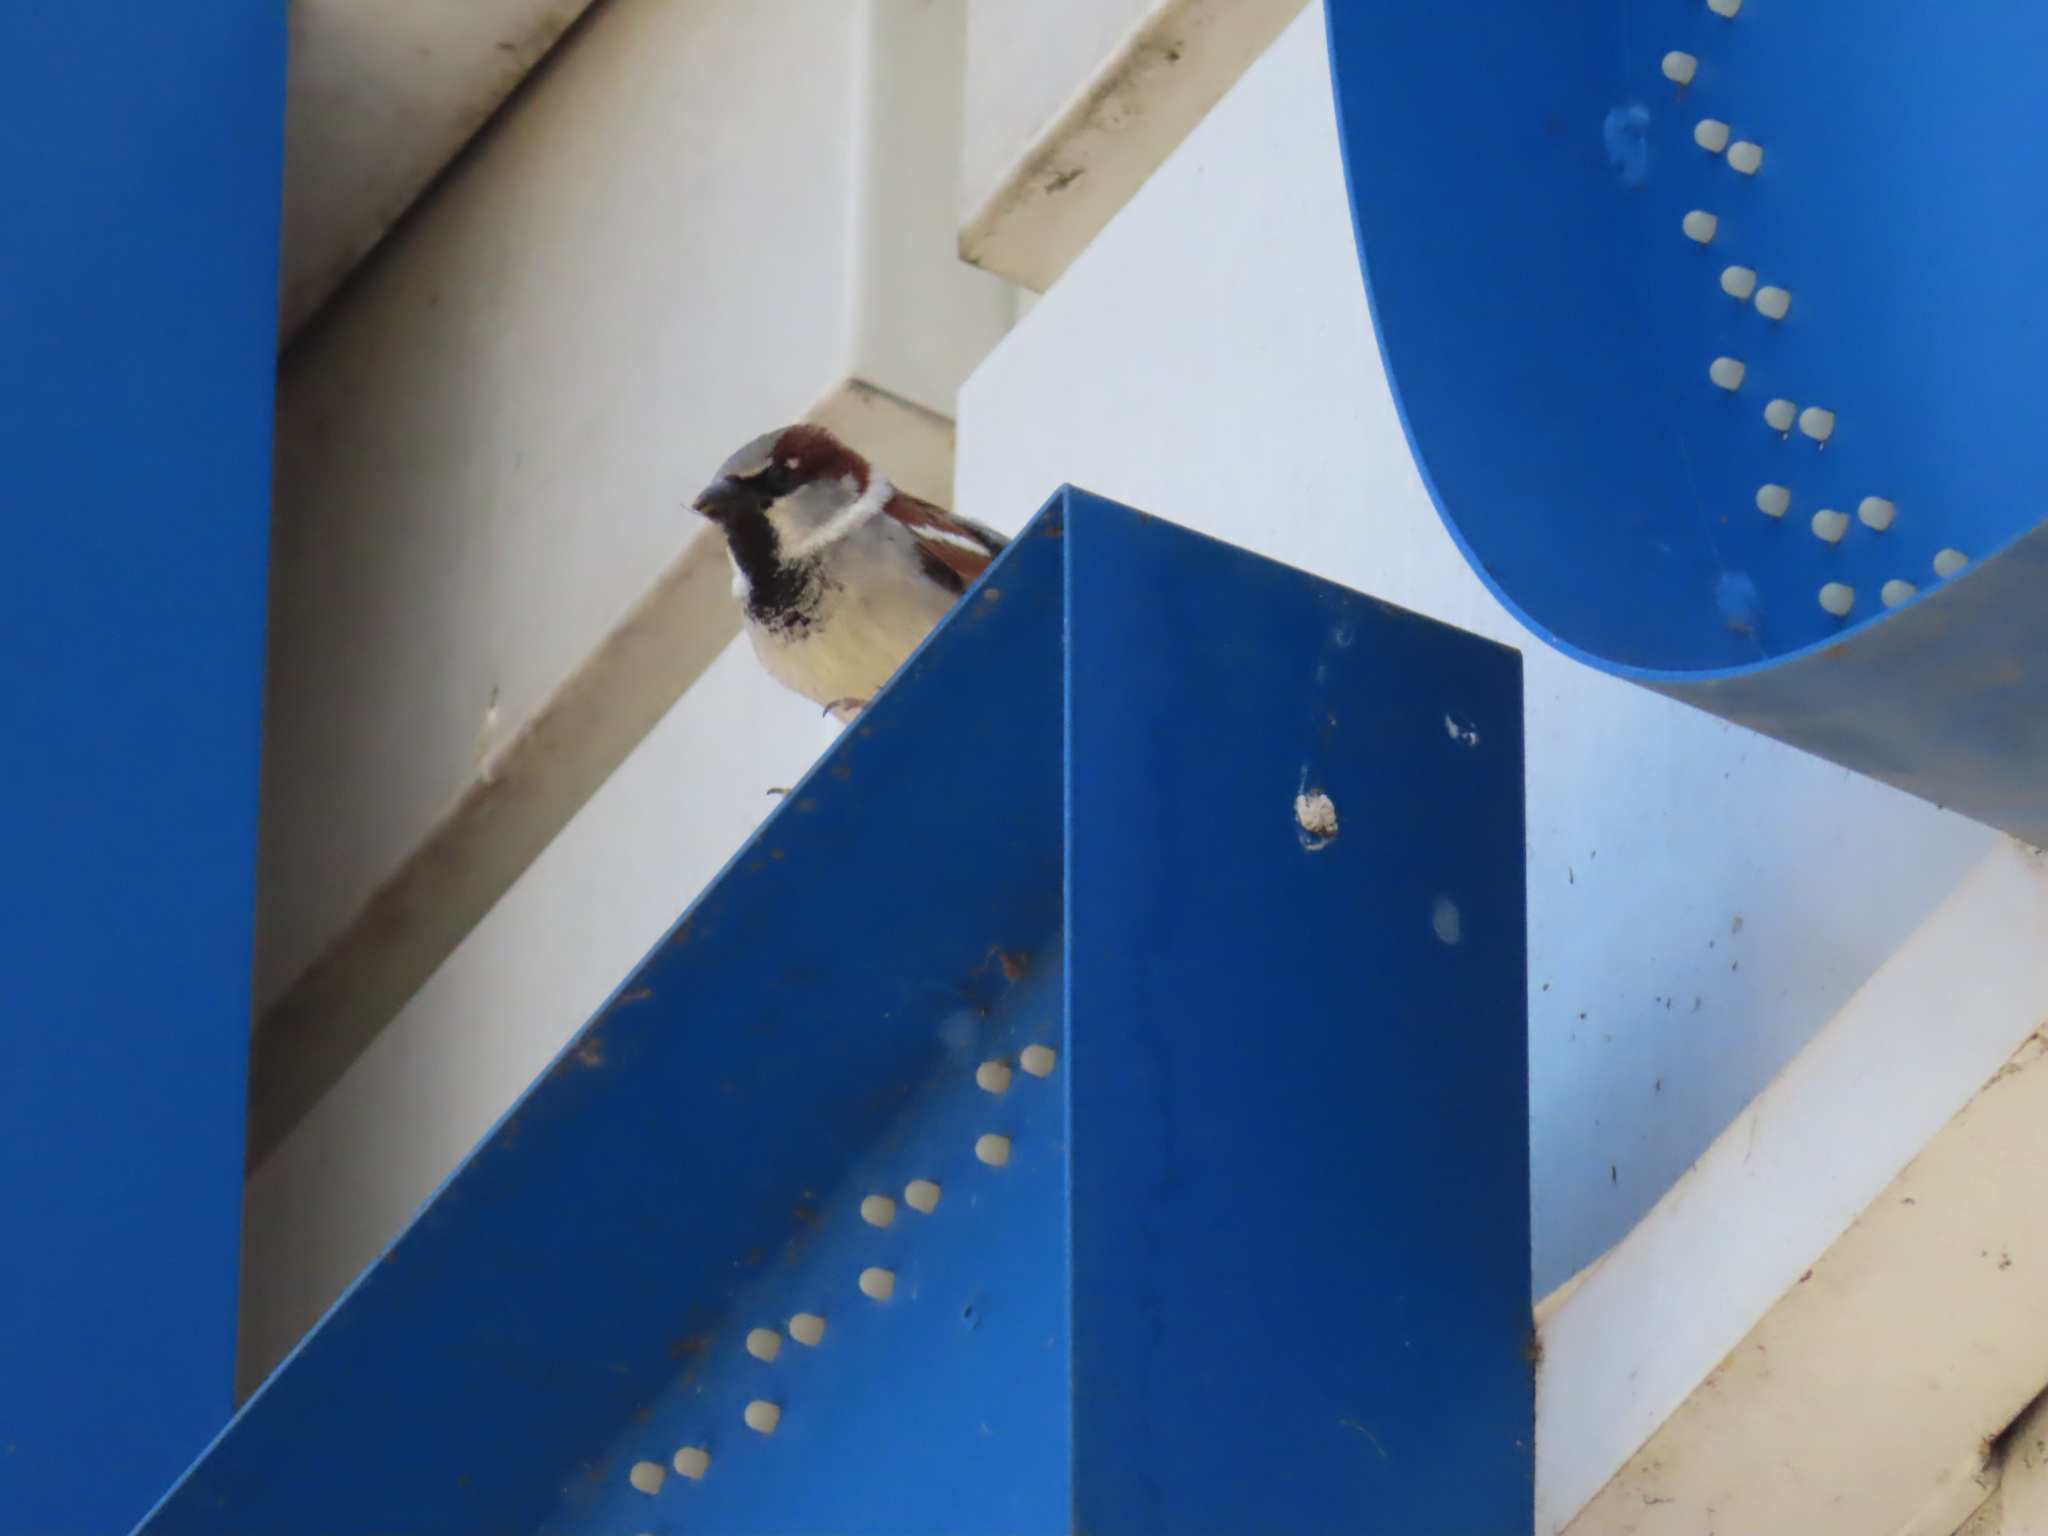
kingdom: Animalia
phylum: Chordata
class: Aves
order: Passeriformes
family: Passeridae
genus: Passer
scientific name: Passer domesticus
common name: House sparrow
